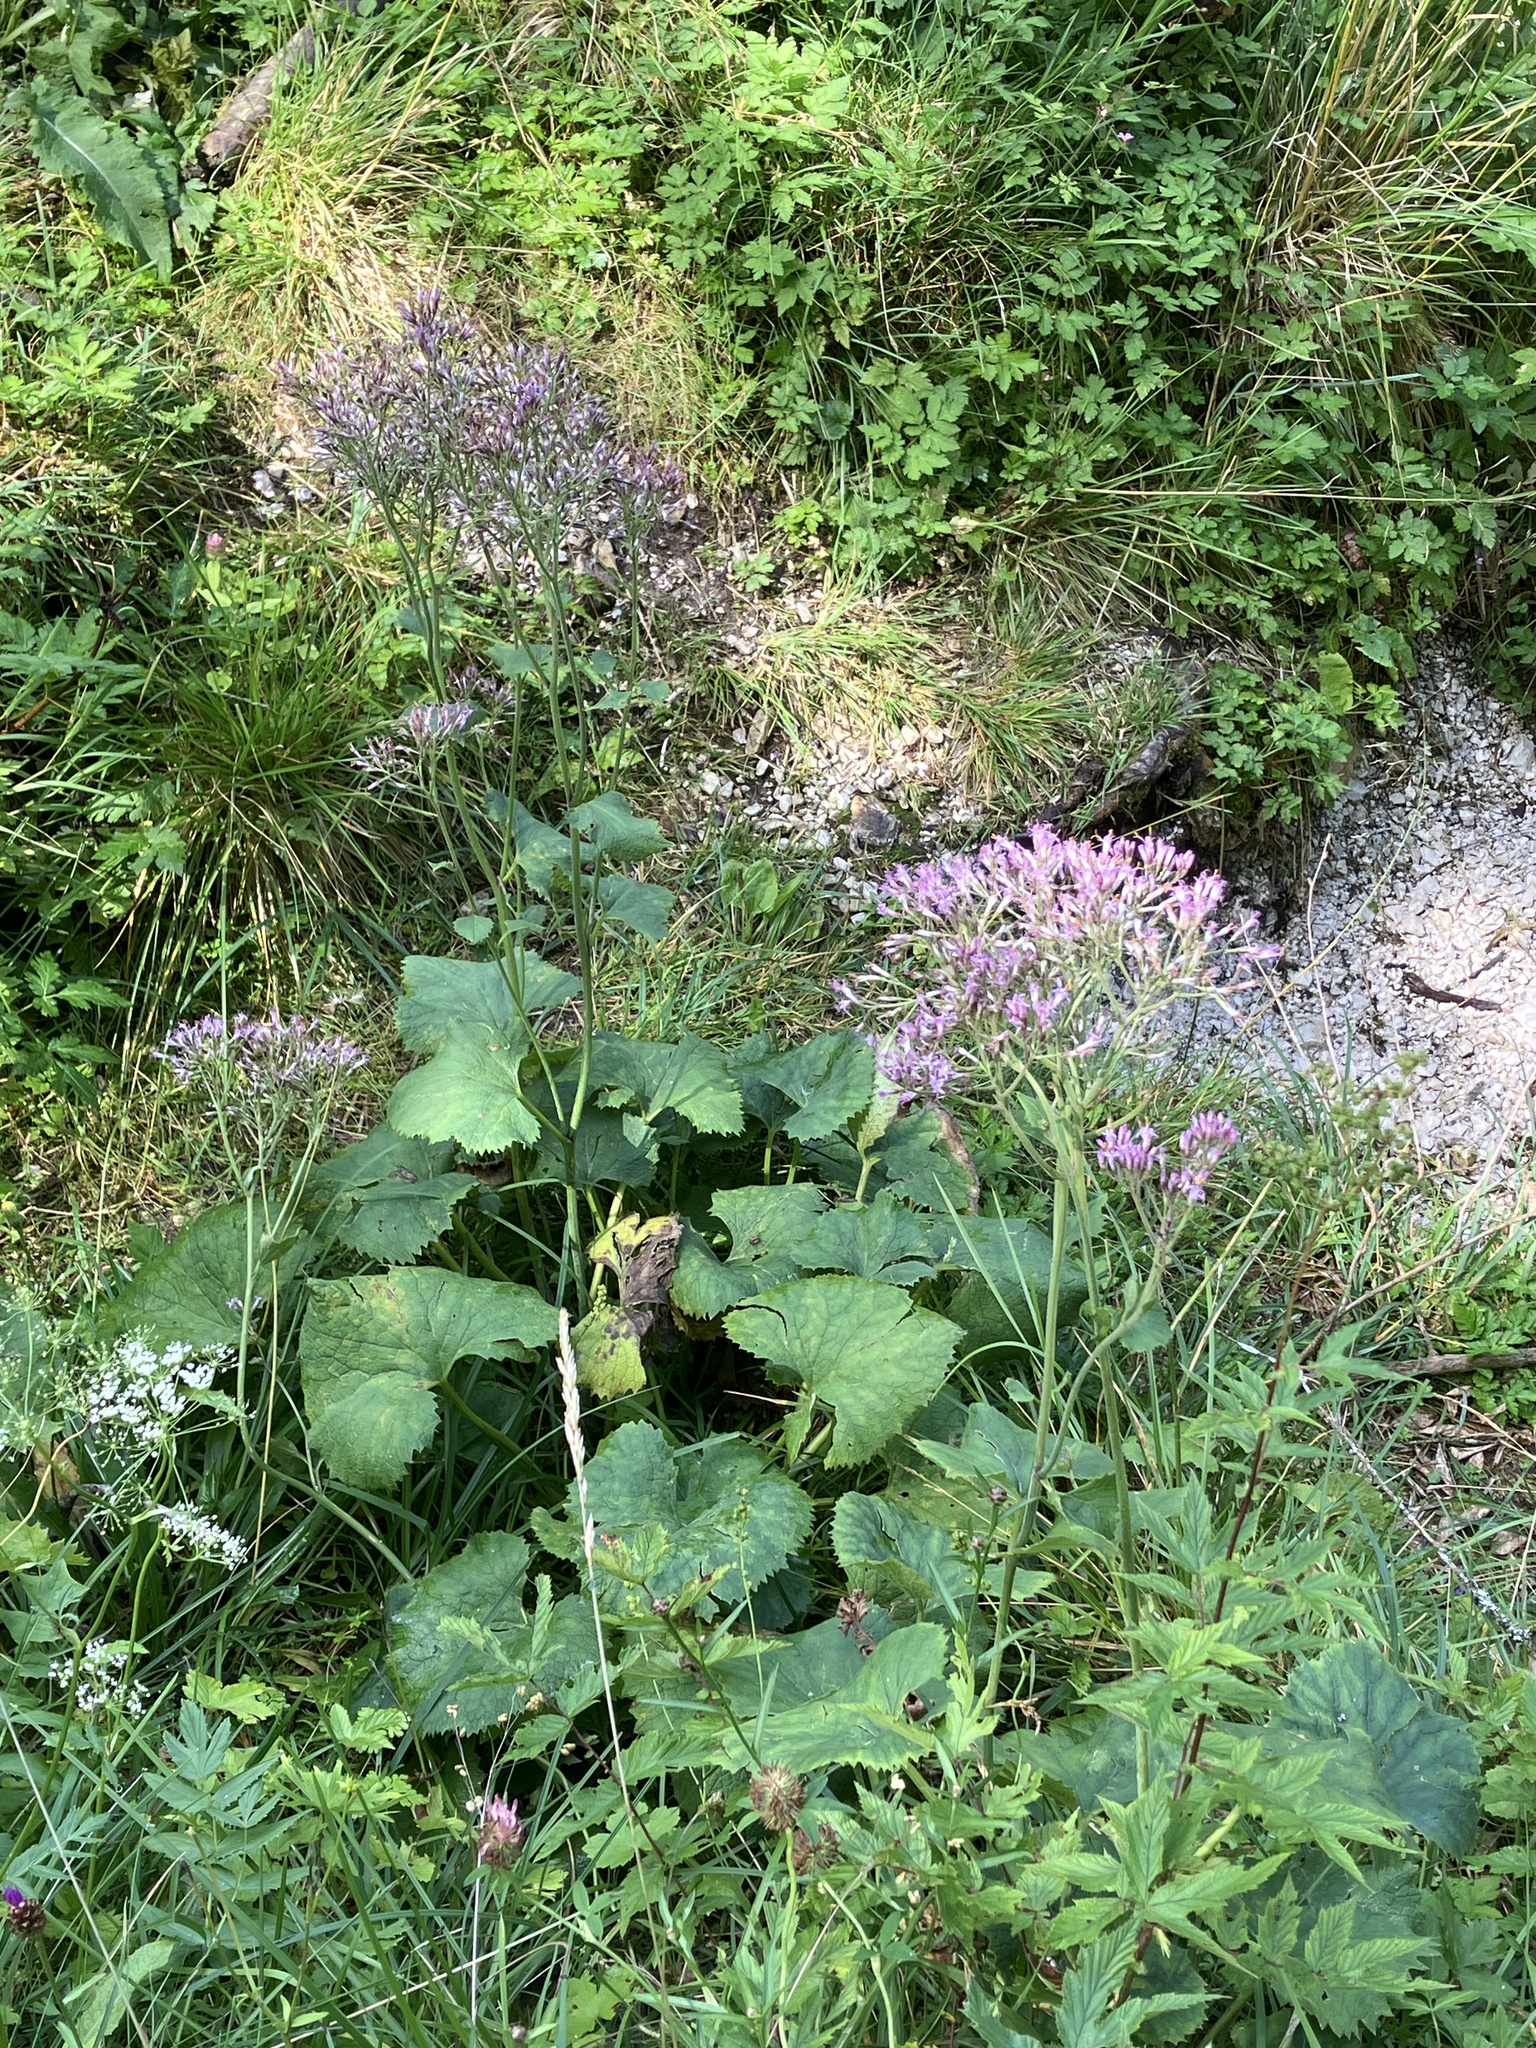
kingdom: Plantae
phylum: Tracheophyta
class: Magnoliopsida
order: Asterales
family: Asteraceae
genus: Adenostyles
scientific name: Adenostyles alpina
